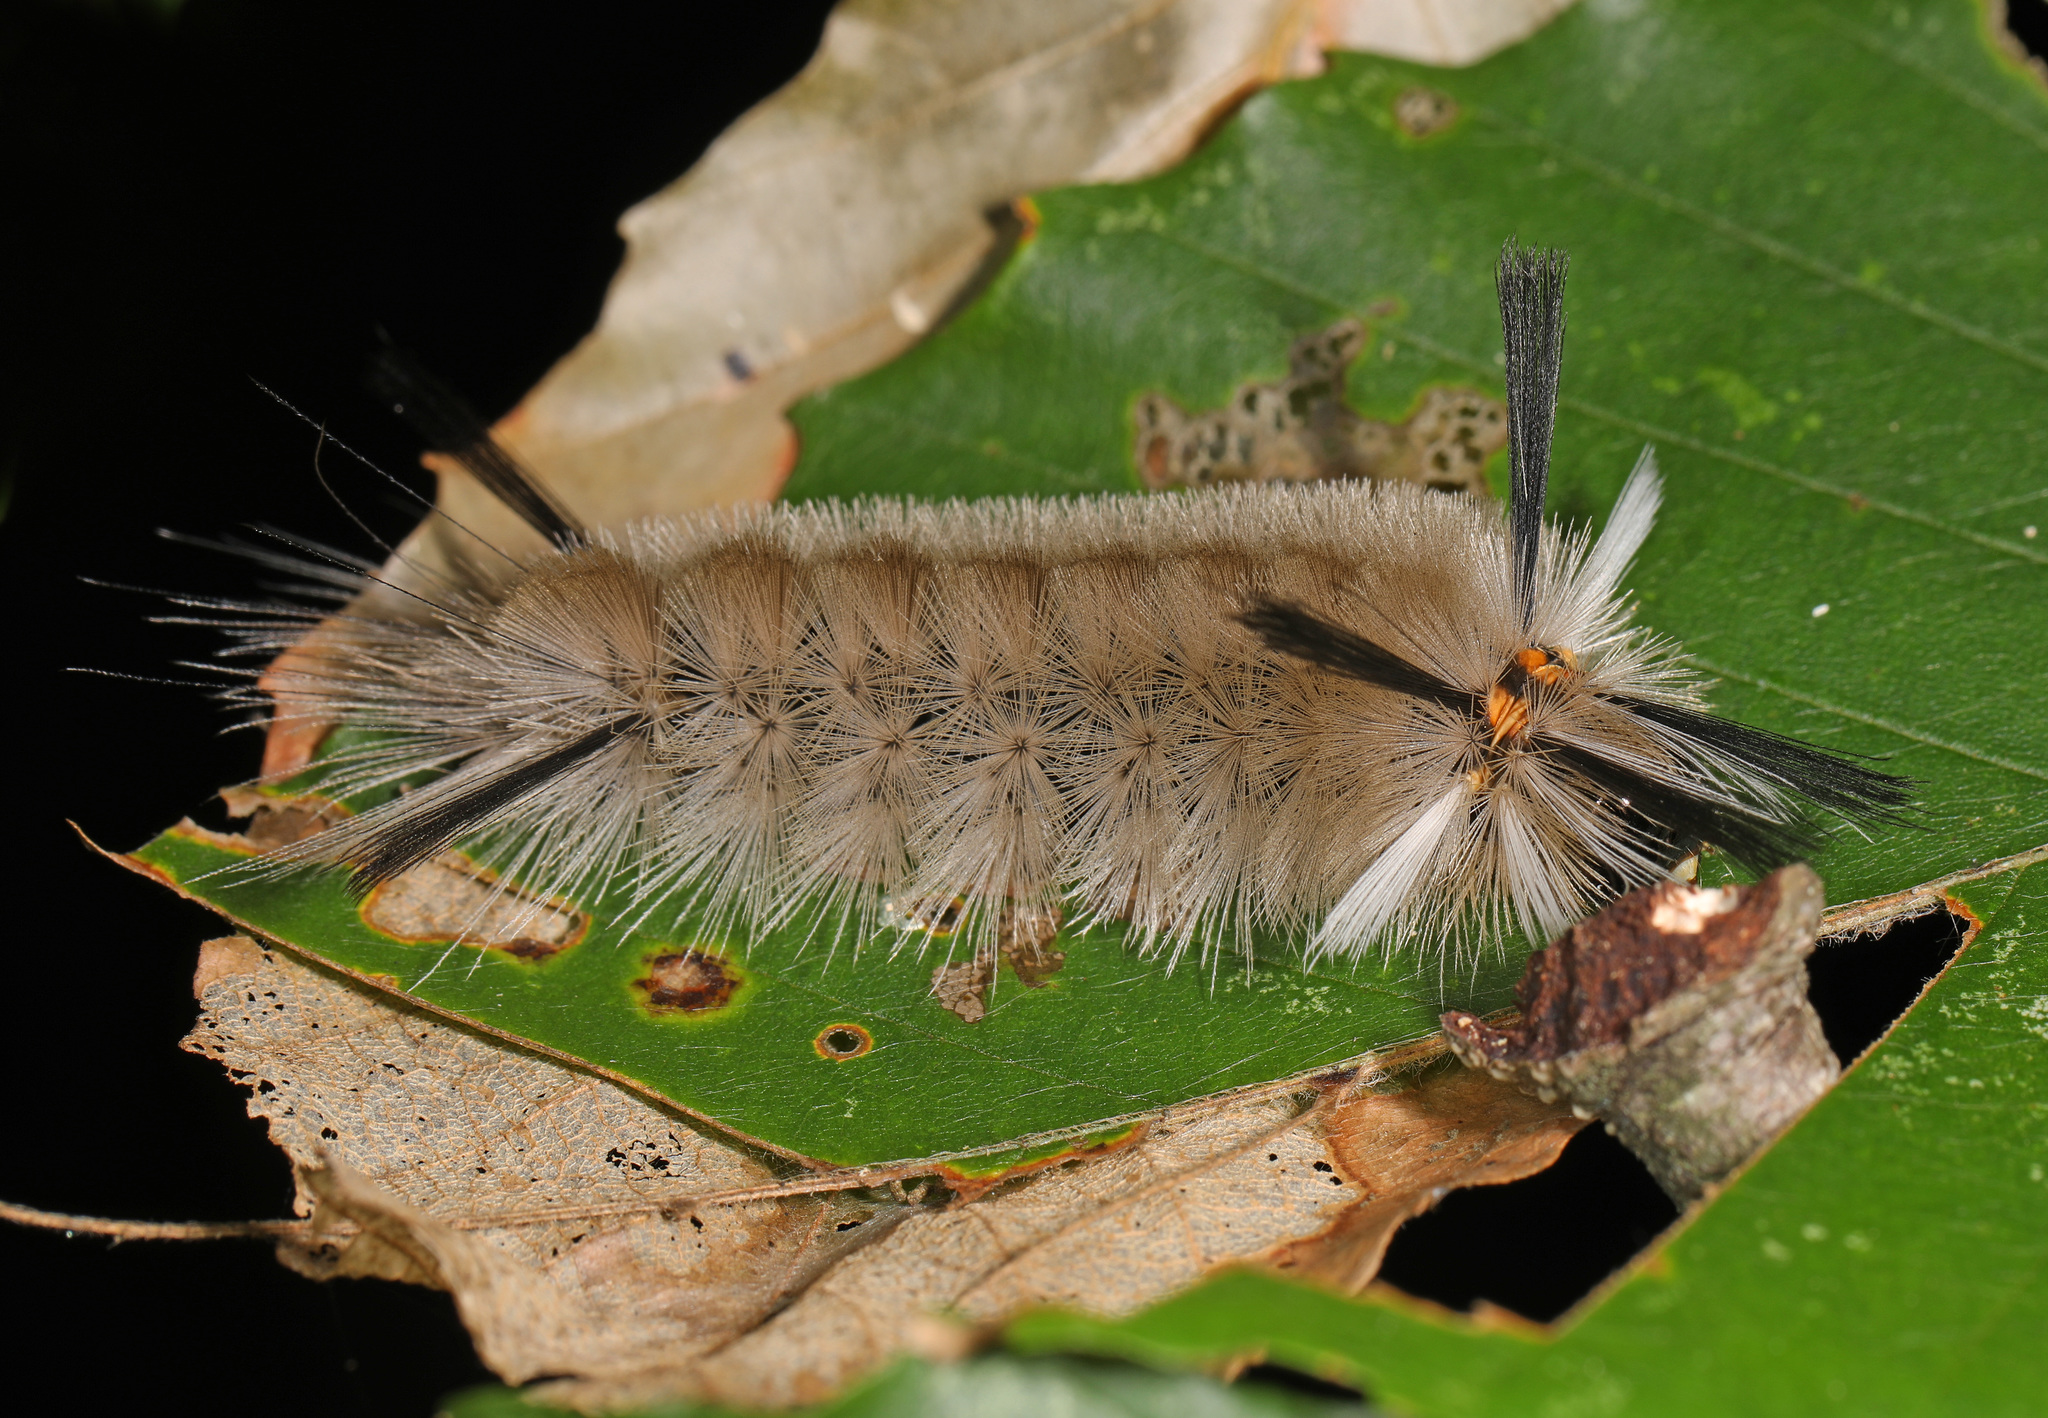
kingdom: Animalia
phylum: Arthropoda
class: Insecta
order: Lepidoptera
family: Erebidae
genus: Halysidota
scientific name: Halysidota tessellaris
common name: Banded tussock moth
